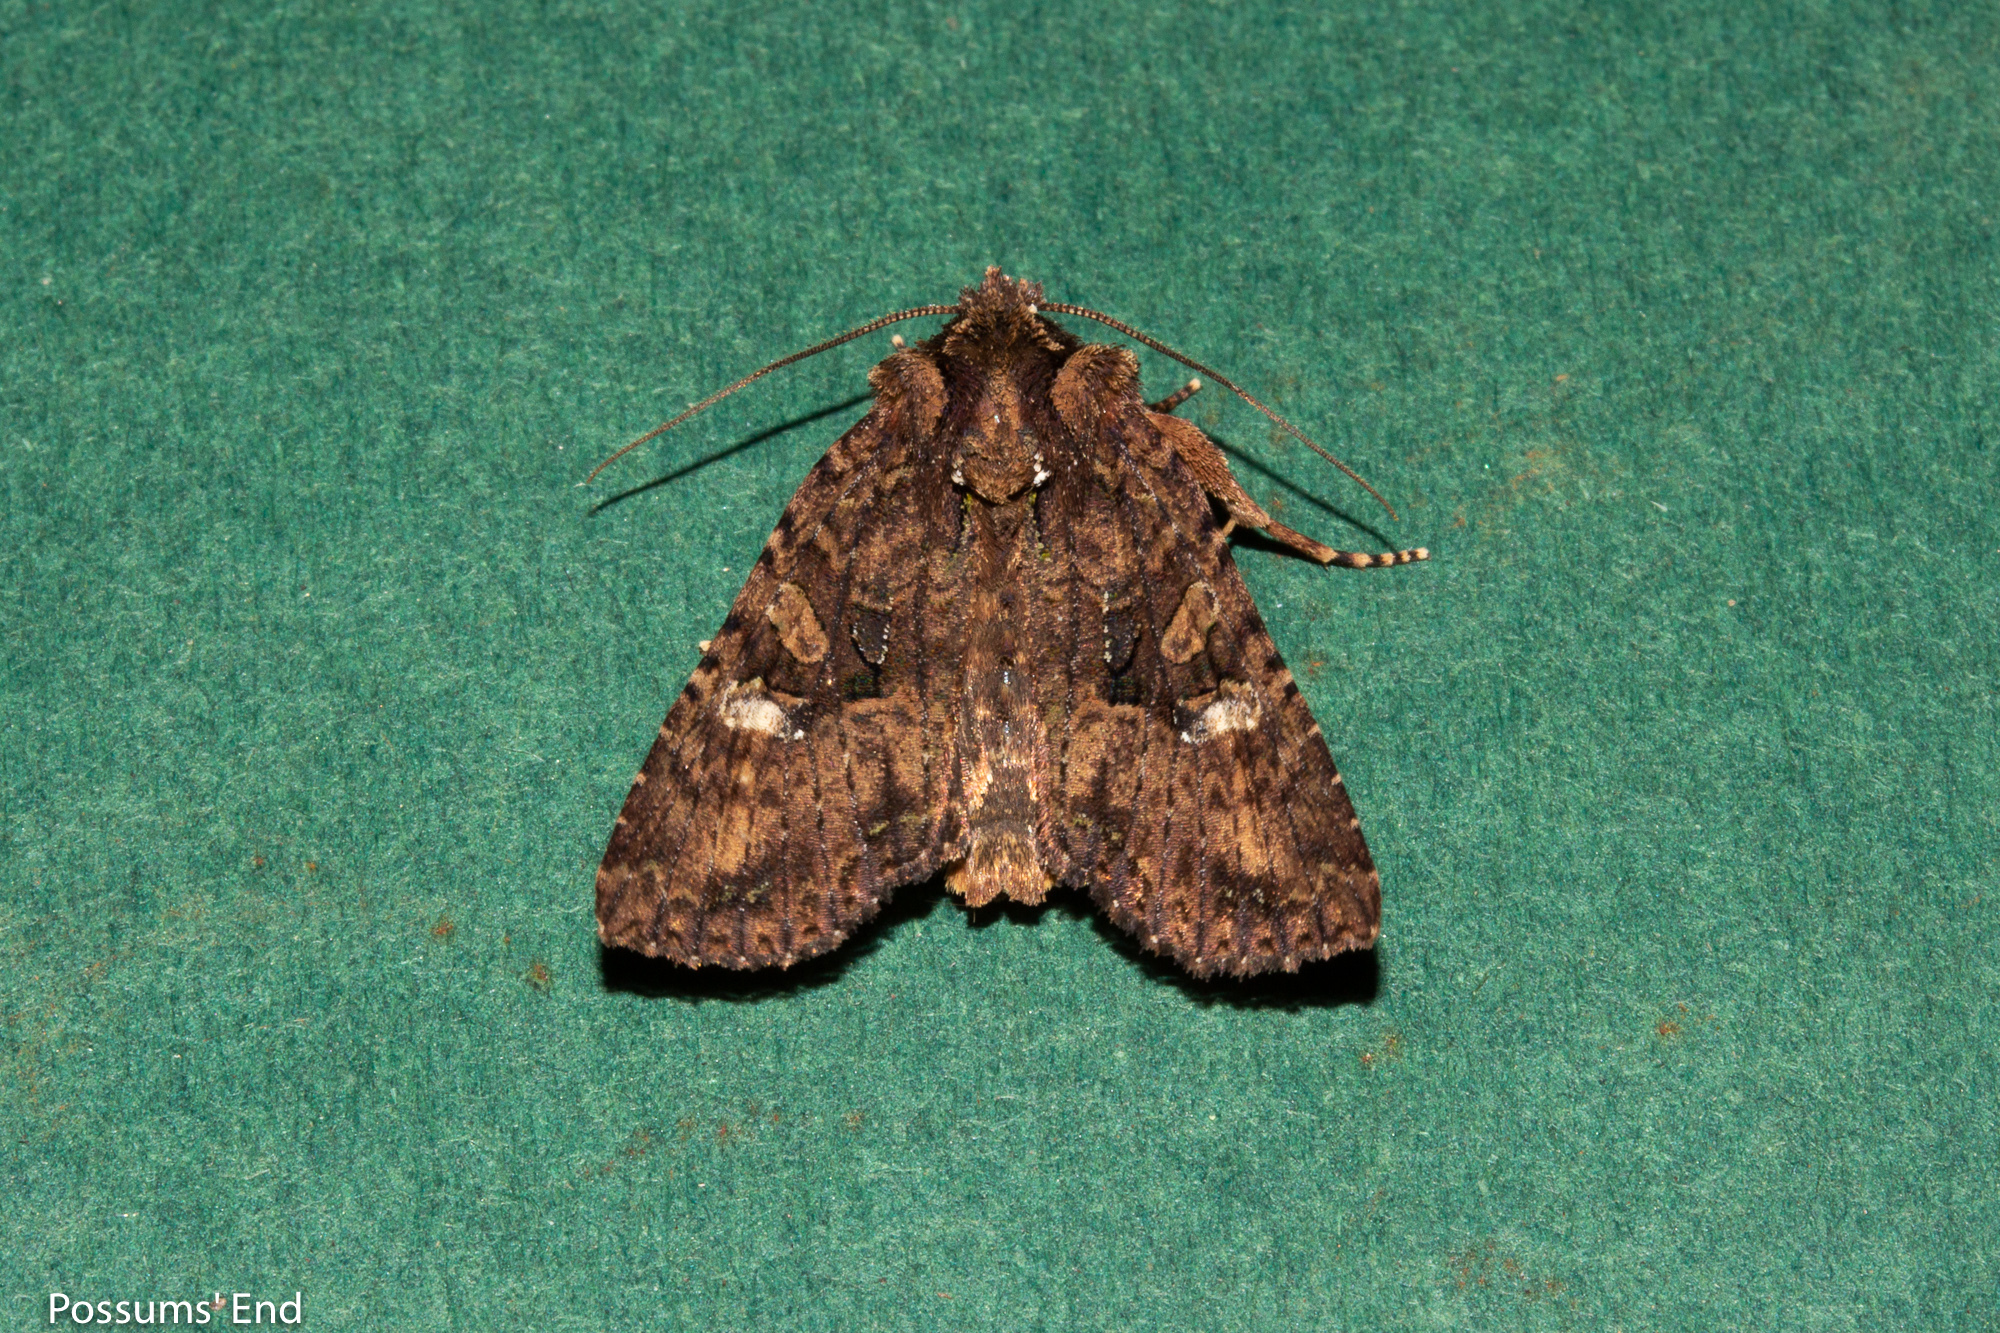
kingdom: Animalia
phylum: Arthropoda
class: Insecta
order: Lepidoptera
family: Noctuidae
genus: Meterana
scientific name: Meterana ochthistis
